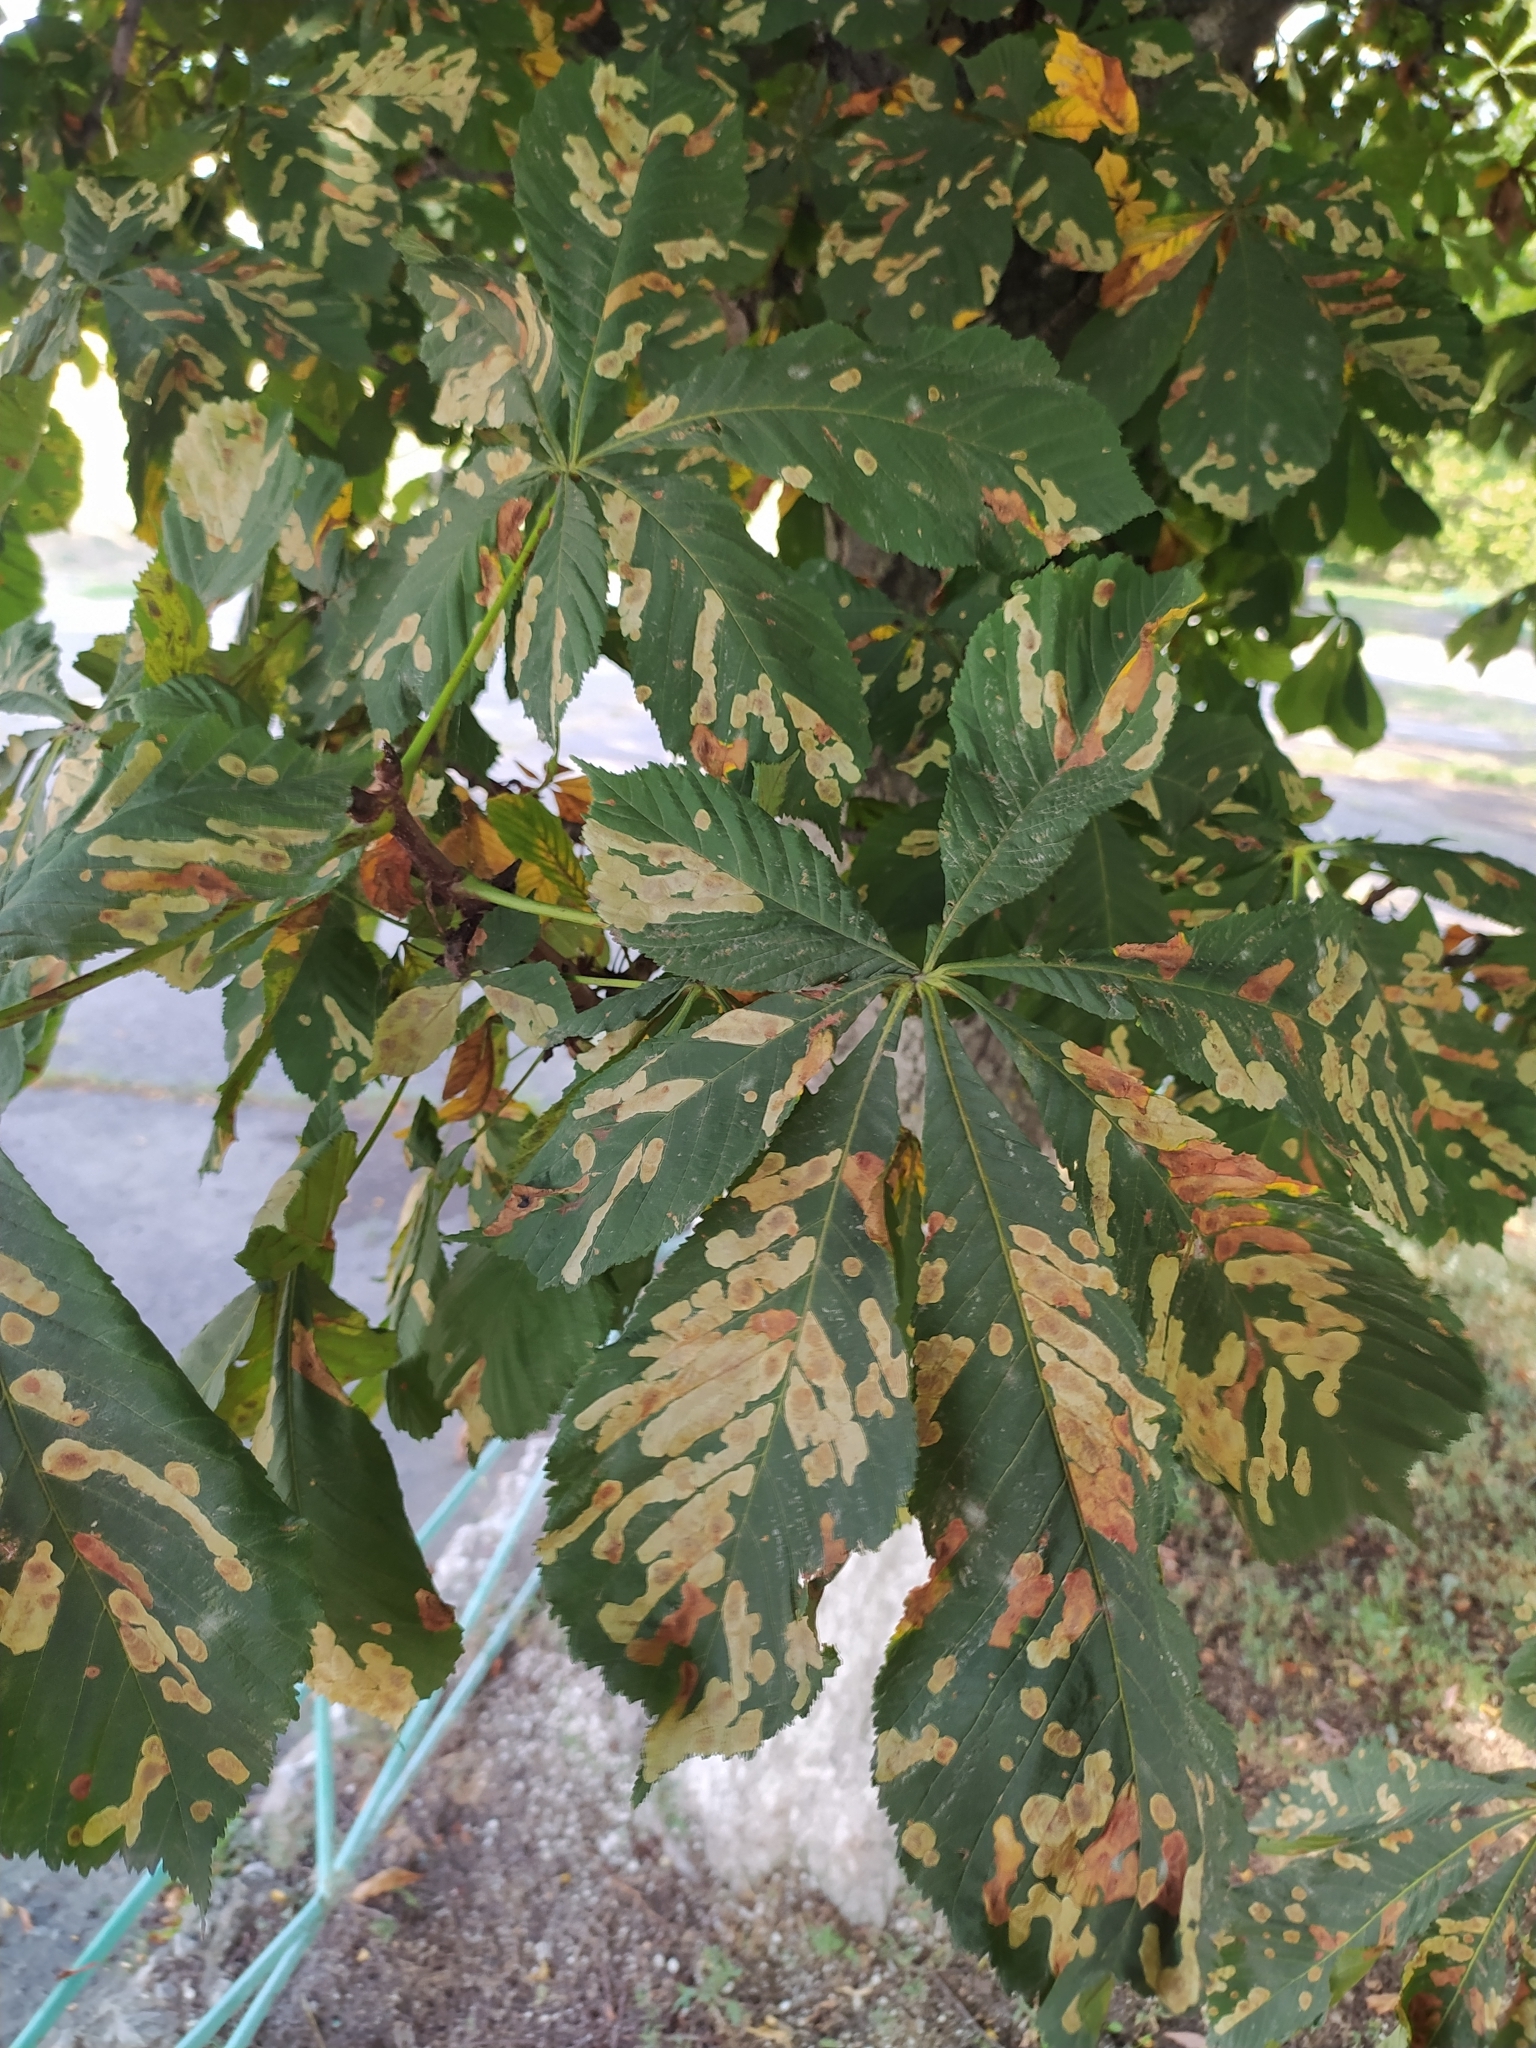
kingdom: Animalia
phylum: Arthropoda
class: Insecta
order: Lepidoptera
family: Gracillariidae
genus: Cameraria
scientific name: Cameraria ohridella
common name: Horse-chestnut leaf-miner
